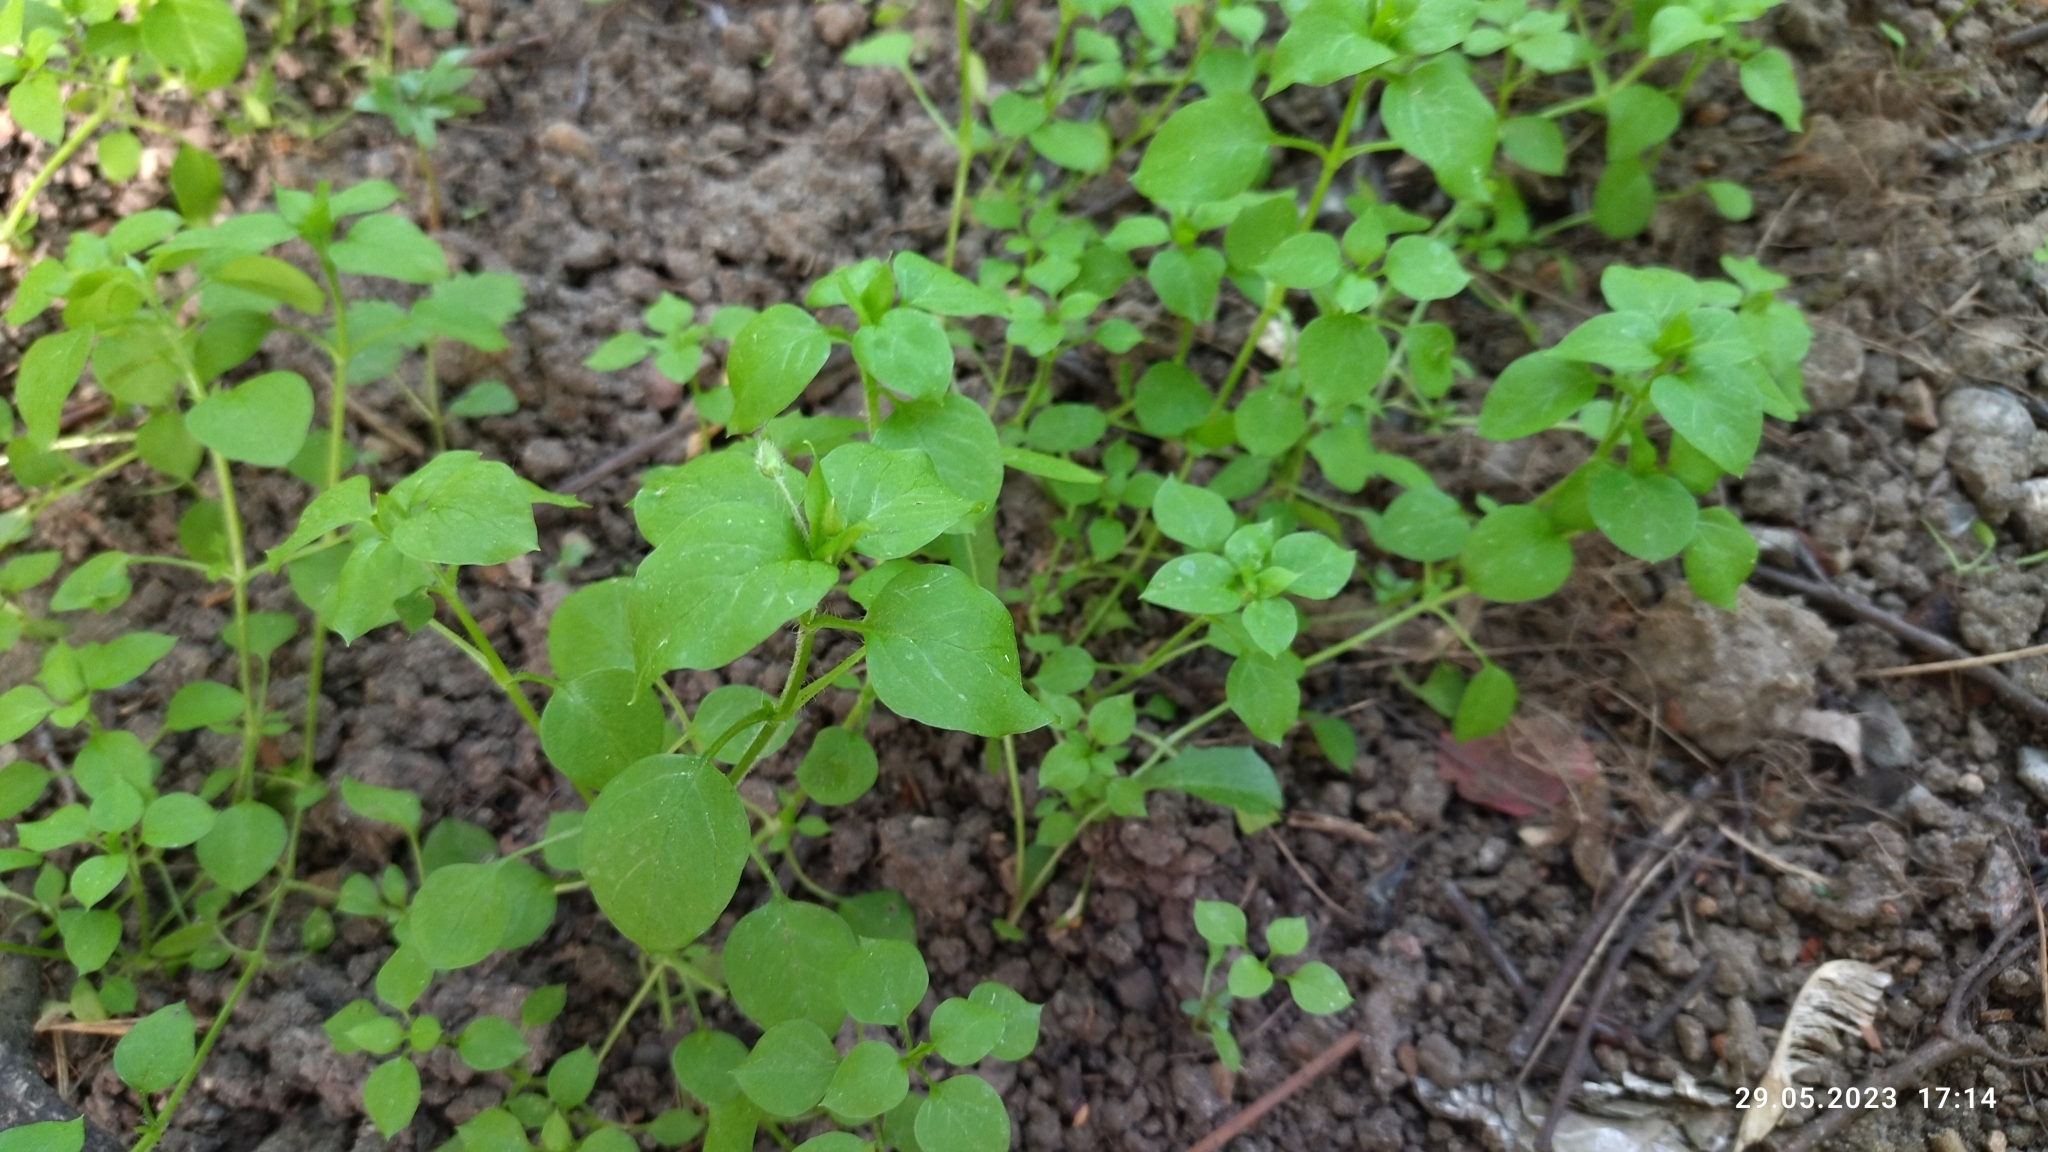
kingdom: Plantae
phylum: Tracheophyta
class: Magnoliopsida
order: Caryophyllales
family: Caryophyllaceae
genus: Stellaria
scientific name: Stellaria media
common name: Common chickweed
